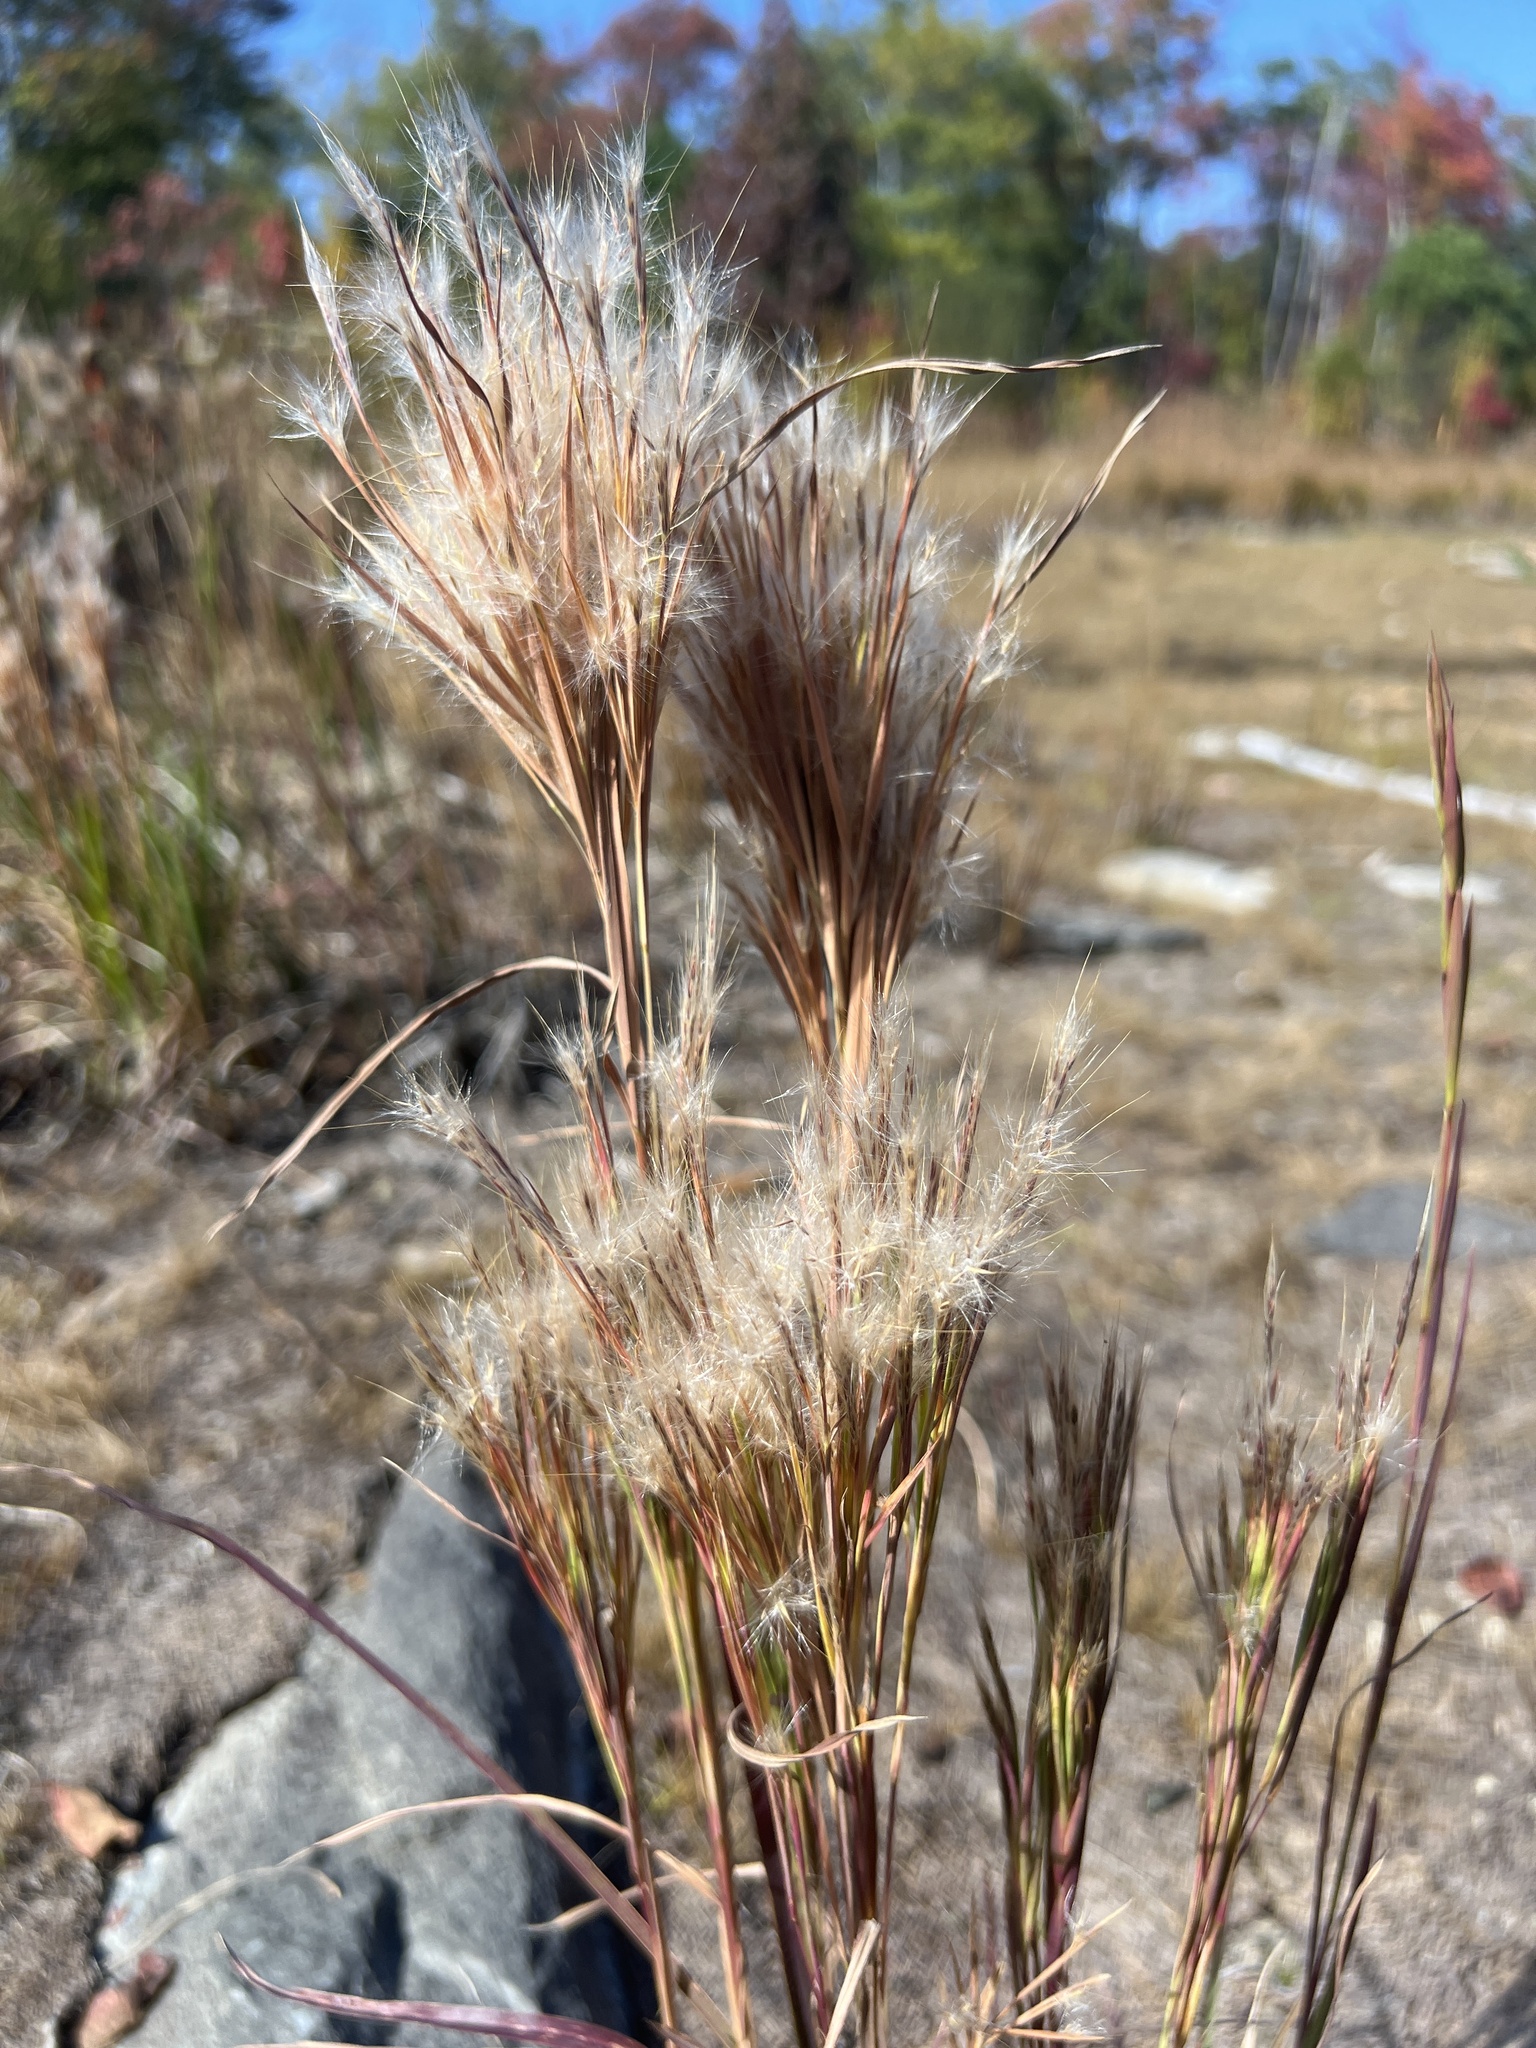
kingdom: Plantae
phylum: Tracheophyta
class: Liliopsida
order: Poales
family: Poaceae
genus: Andropogon
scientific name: Andropogon glomeratus
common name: Bushy beard grass
